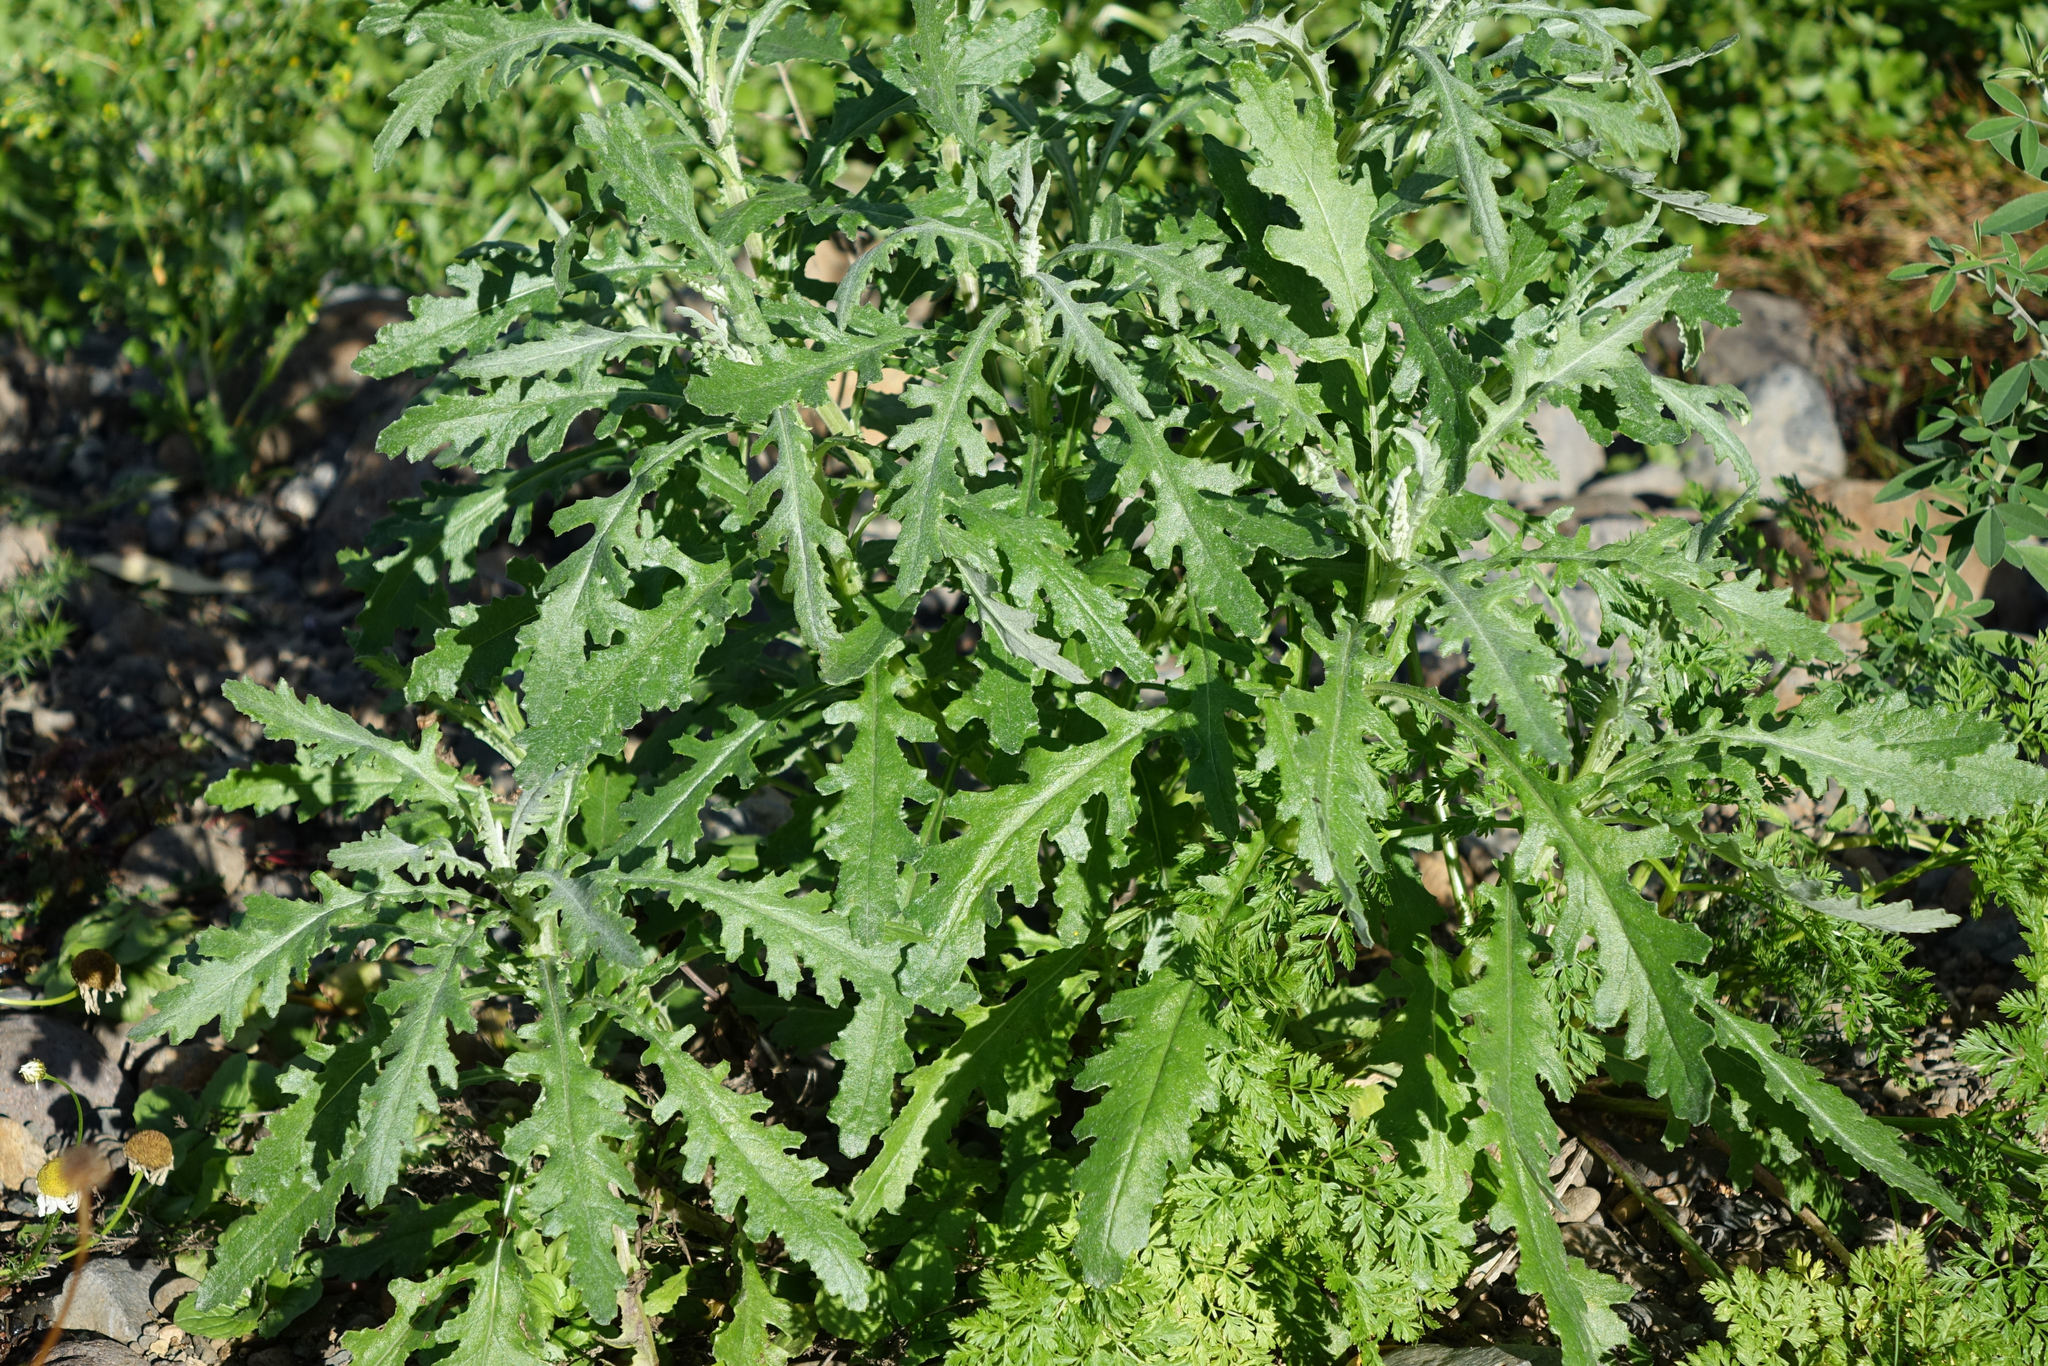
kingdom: Plantae
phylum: Tracheophyta
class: Magnoliopsida
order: Asterales
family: Asteraceae
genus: Senecio
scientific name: Senecio glomeratus
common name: Cutleaf burnweed
